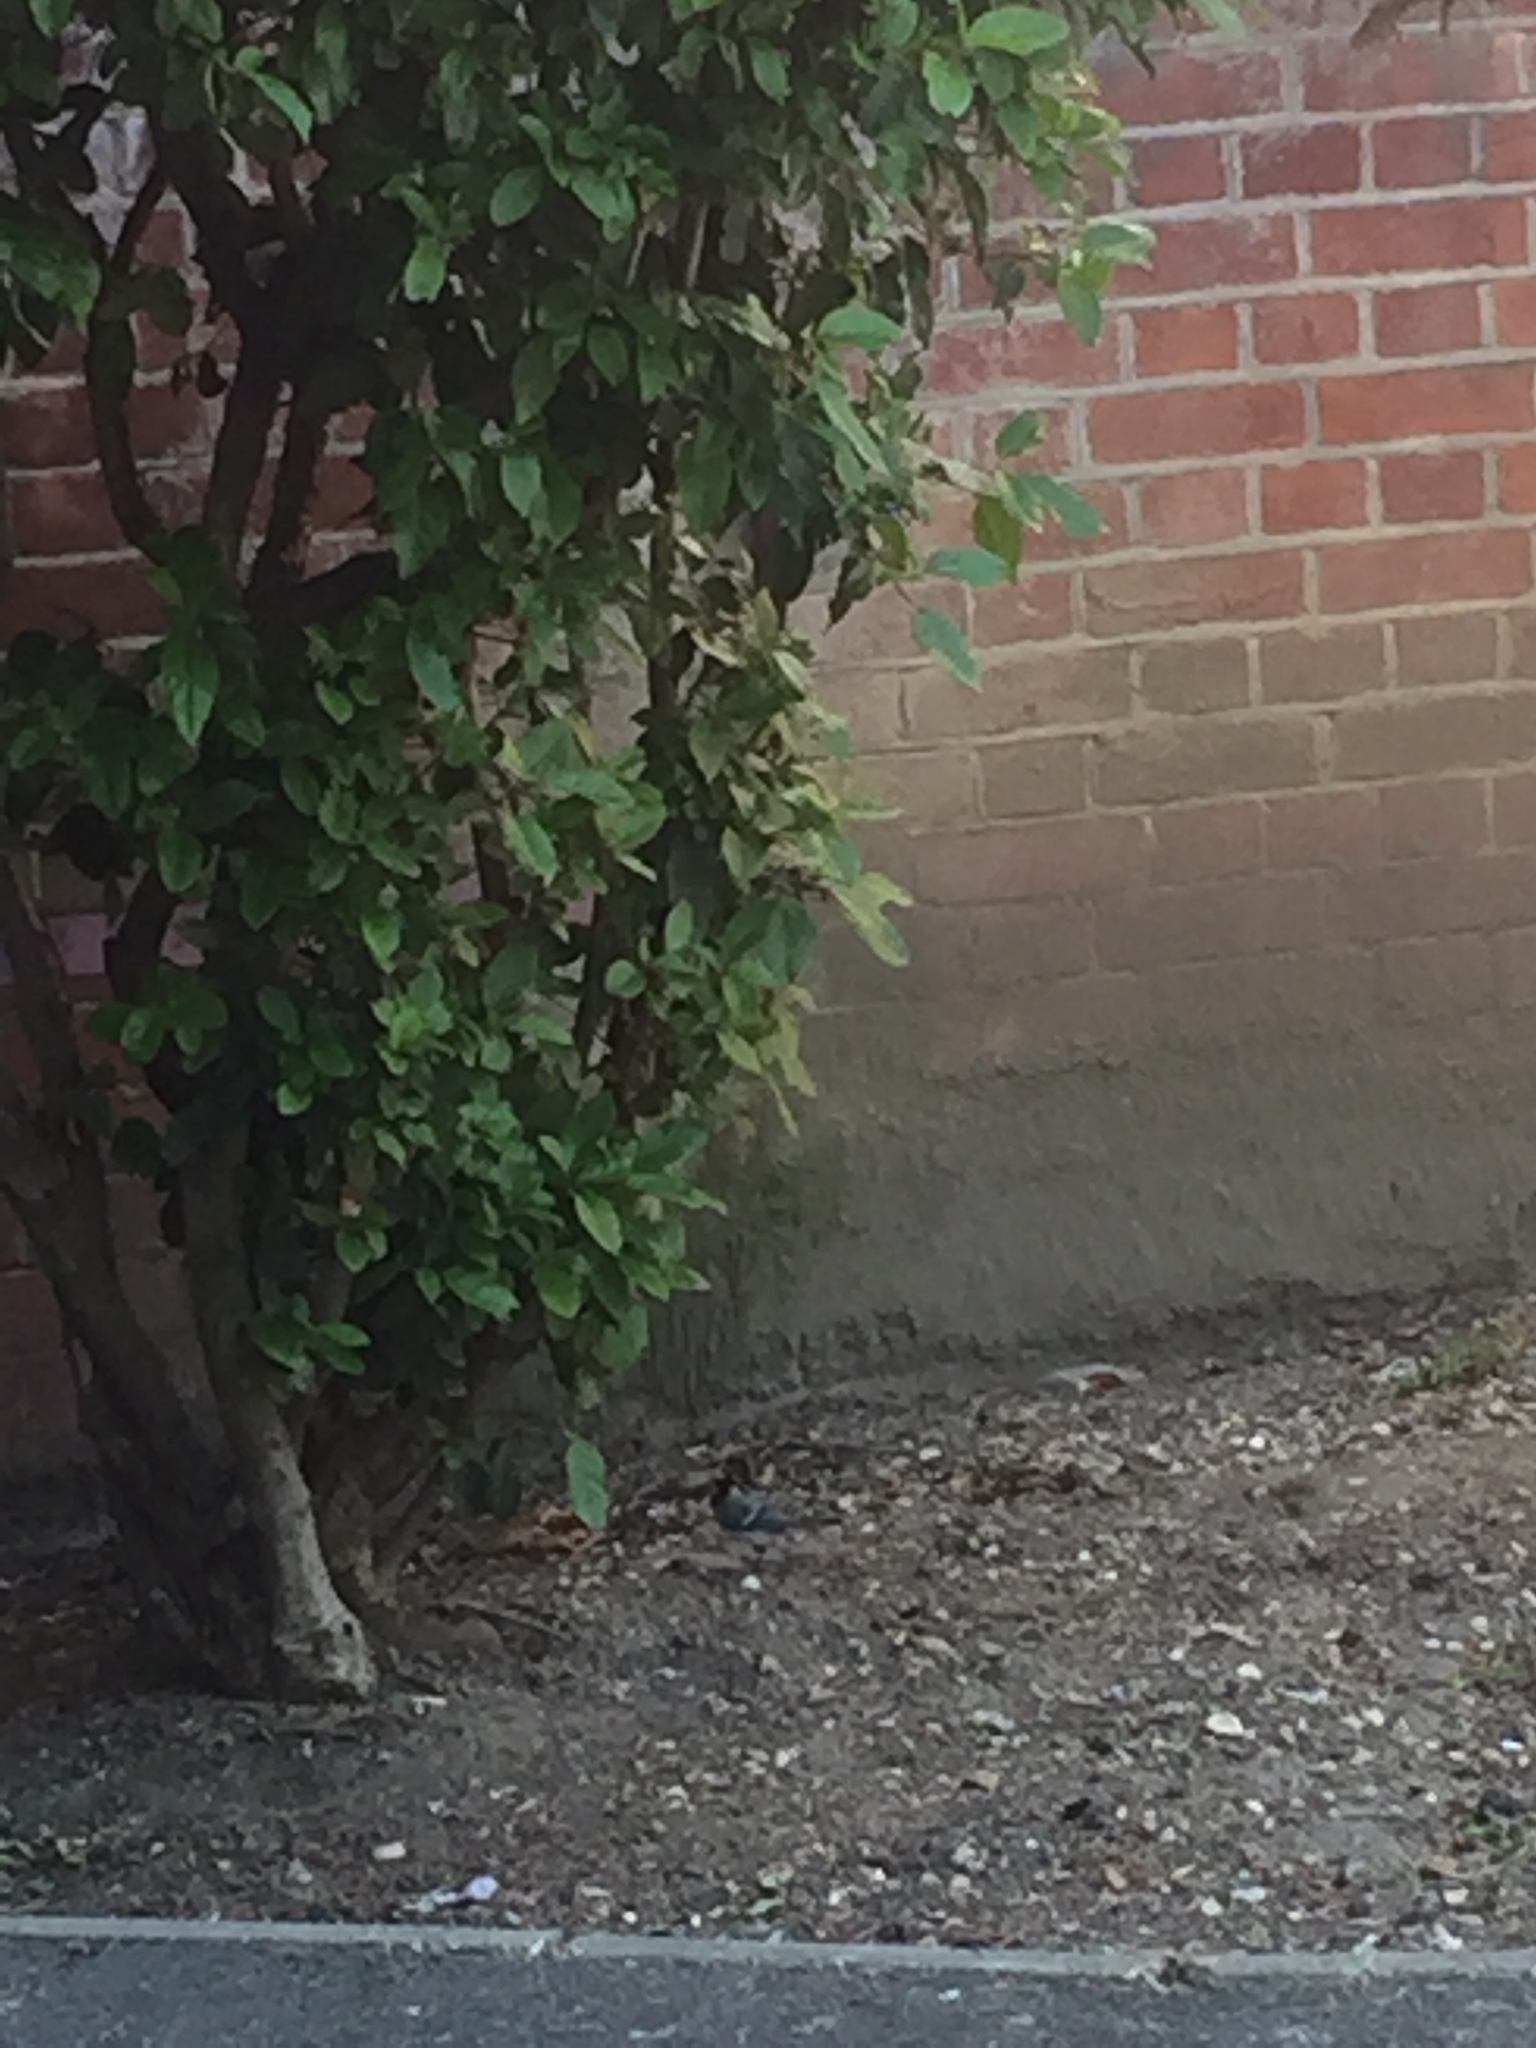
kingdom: Animalia
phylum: Chordata
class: Aves
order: Passeriformes
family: Paridae
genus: Parus
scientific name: Parus major
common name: Great tit
